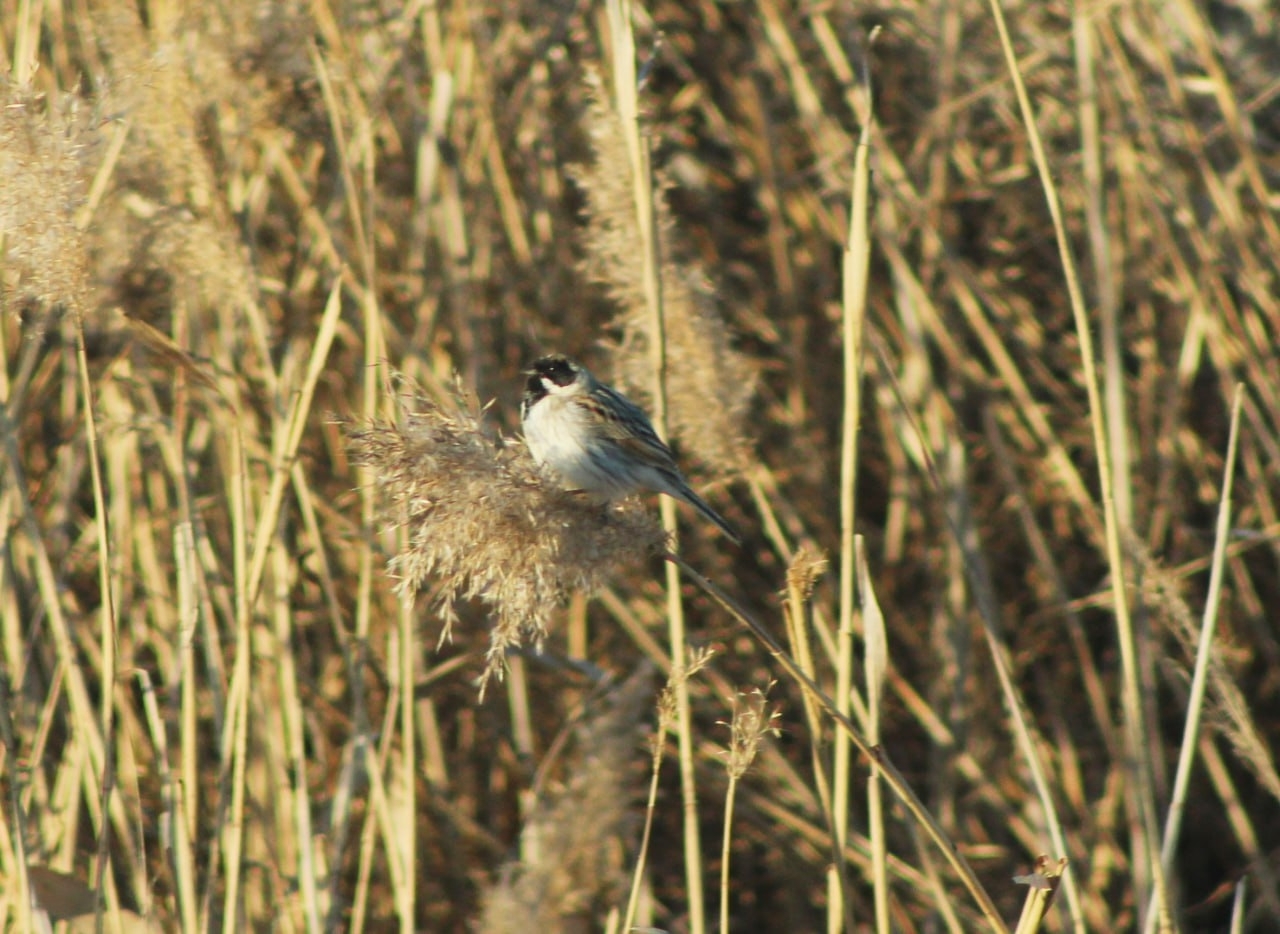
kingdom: Animalia
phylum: Chordata
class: Aves
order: Passeriformes
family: Emberizidae
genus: Emberiza
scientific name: Emberiza schoeniclus
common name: Reed bunting
